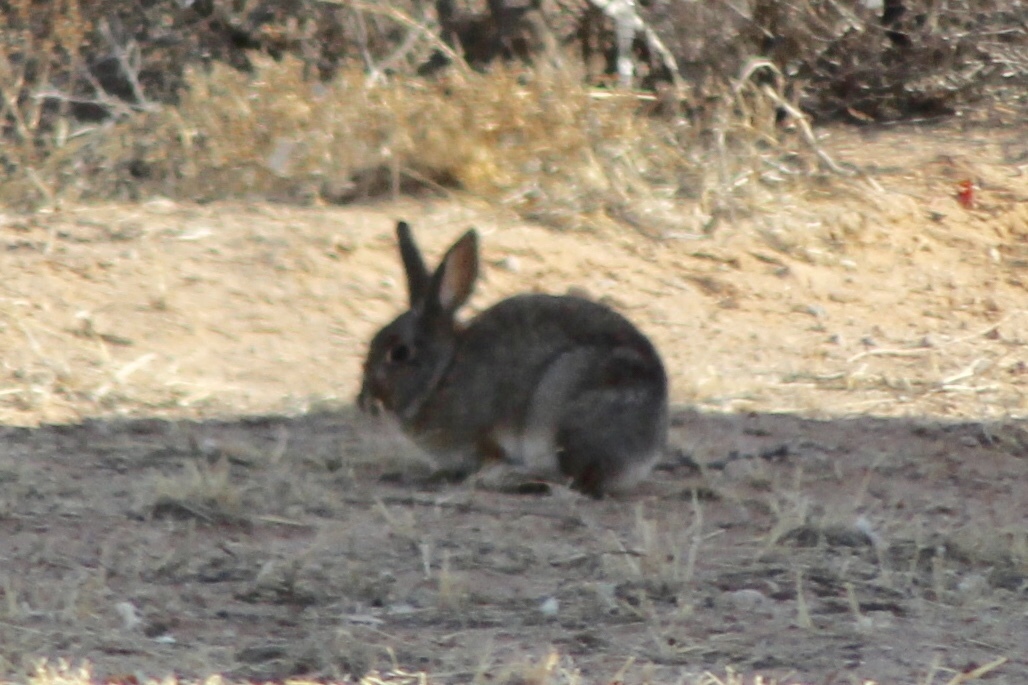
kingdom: Animalia
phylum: Chordata
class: Mammalia
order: Lagomorpha
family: Leporidae
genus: Sylvilagus
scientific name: Sylvilagus audubonii
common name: Desert cottontail
